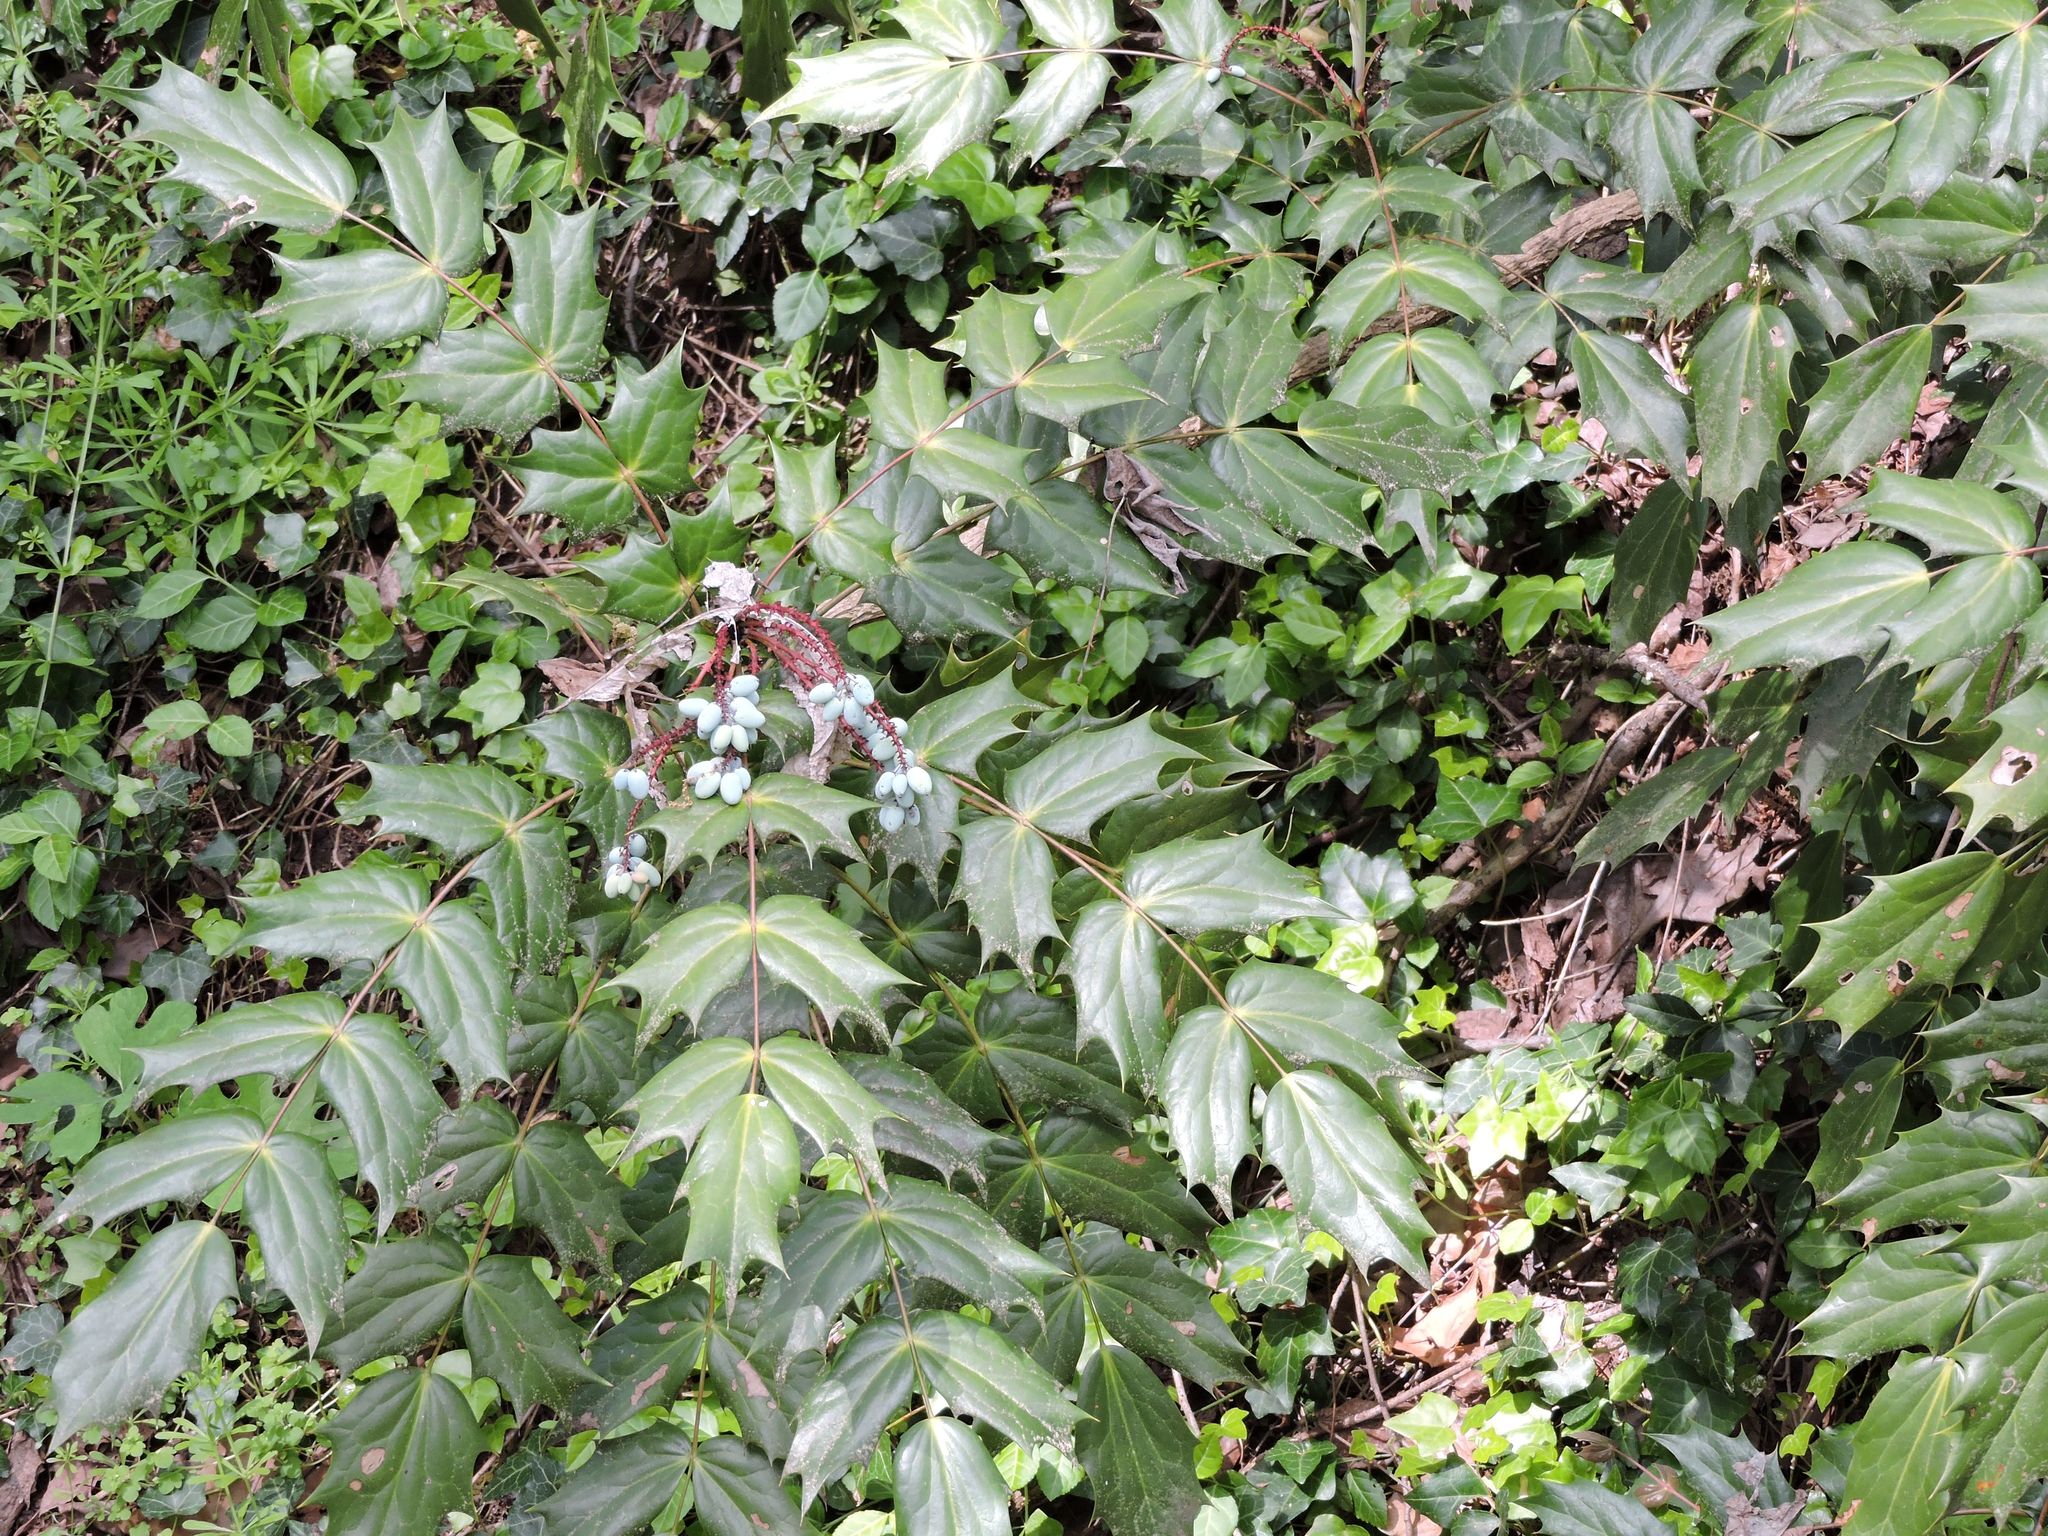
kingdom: Plantae
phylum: Tracheophyta
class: Magnoliopsida
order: Ranunculales
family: Berberidaceae
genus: Mahonia
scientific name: Mahonia bealei
